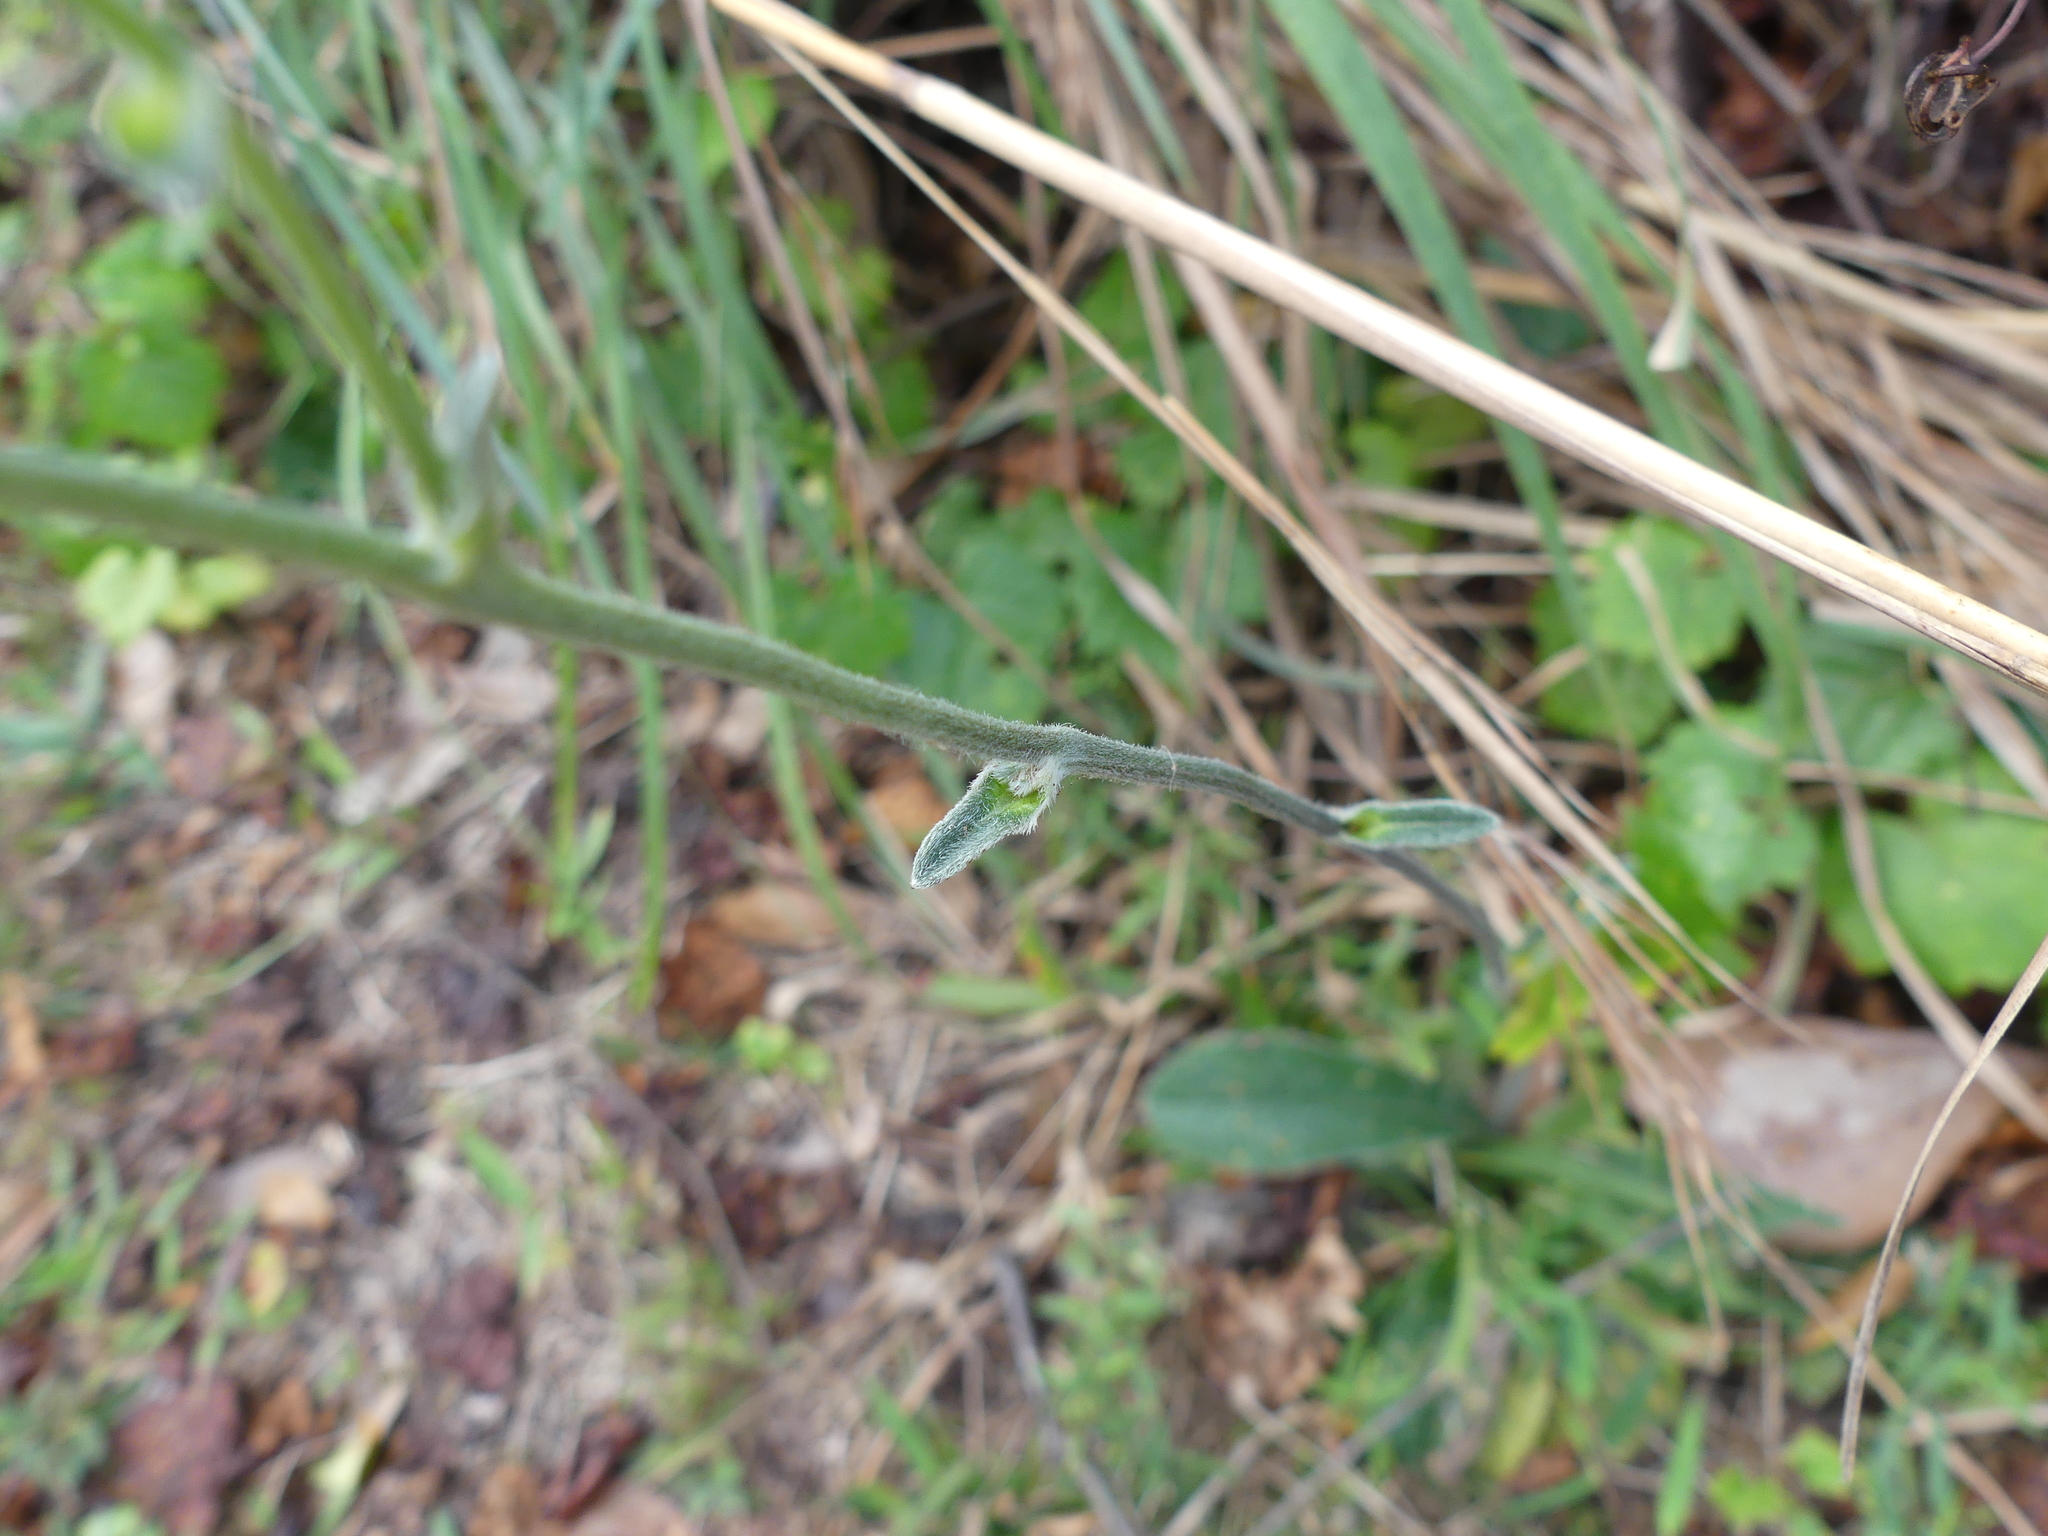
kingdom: Plantae
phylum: Tracheophyta
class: Magnoliopsida
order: Asterales
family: Asteraceae
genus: Elephantopus
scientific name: Elephantopus elatus
